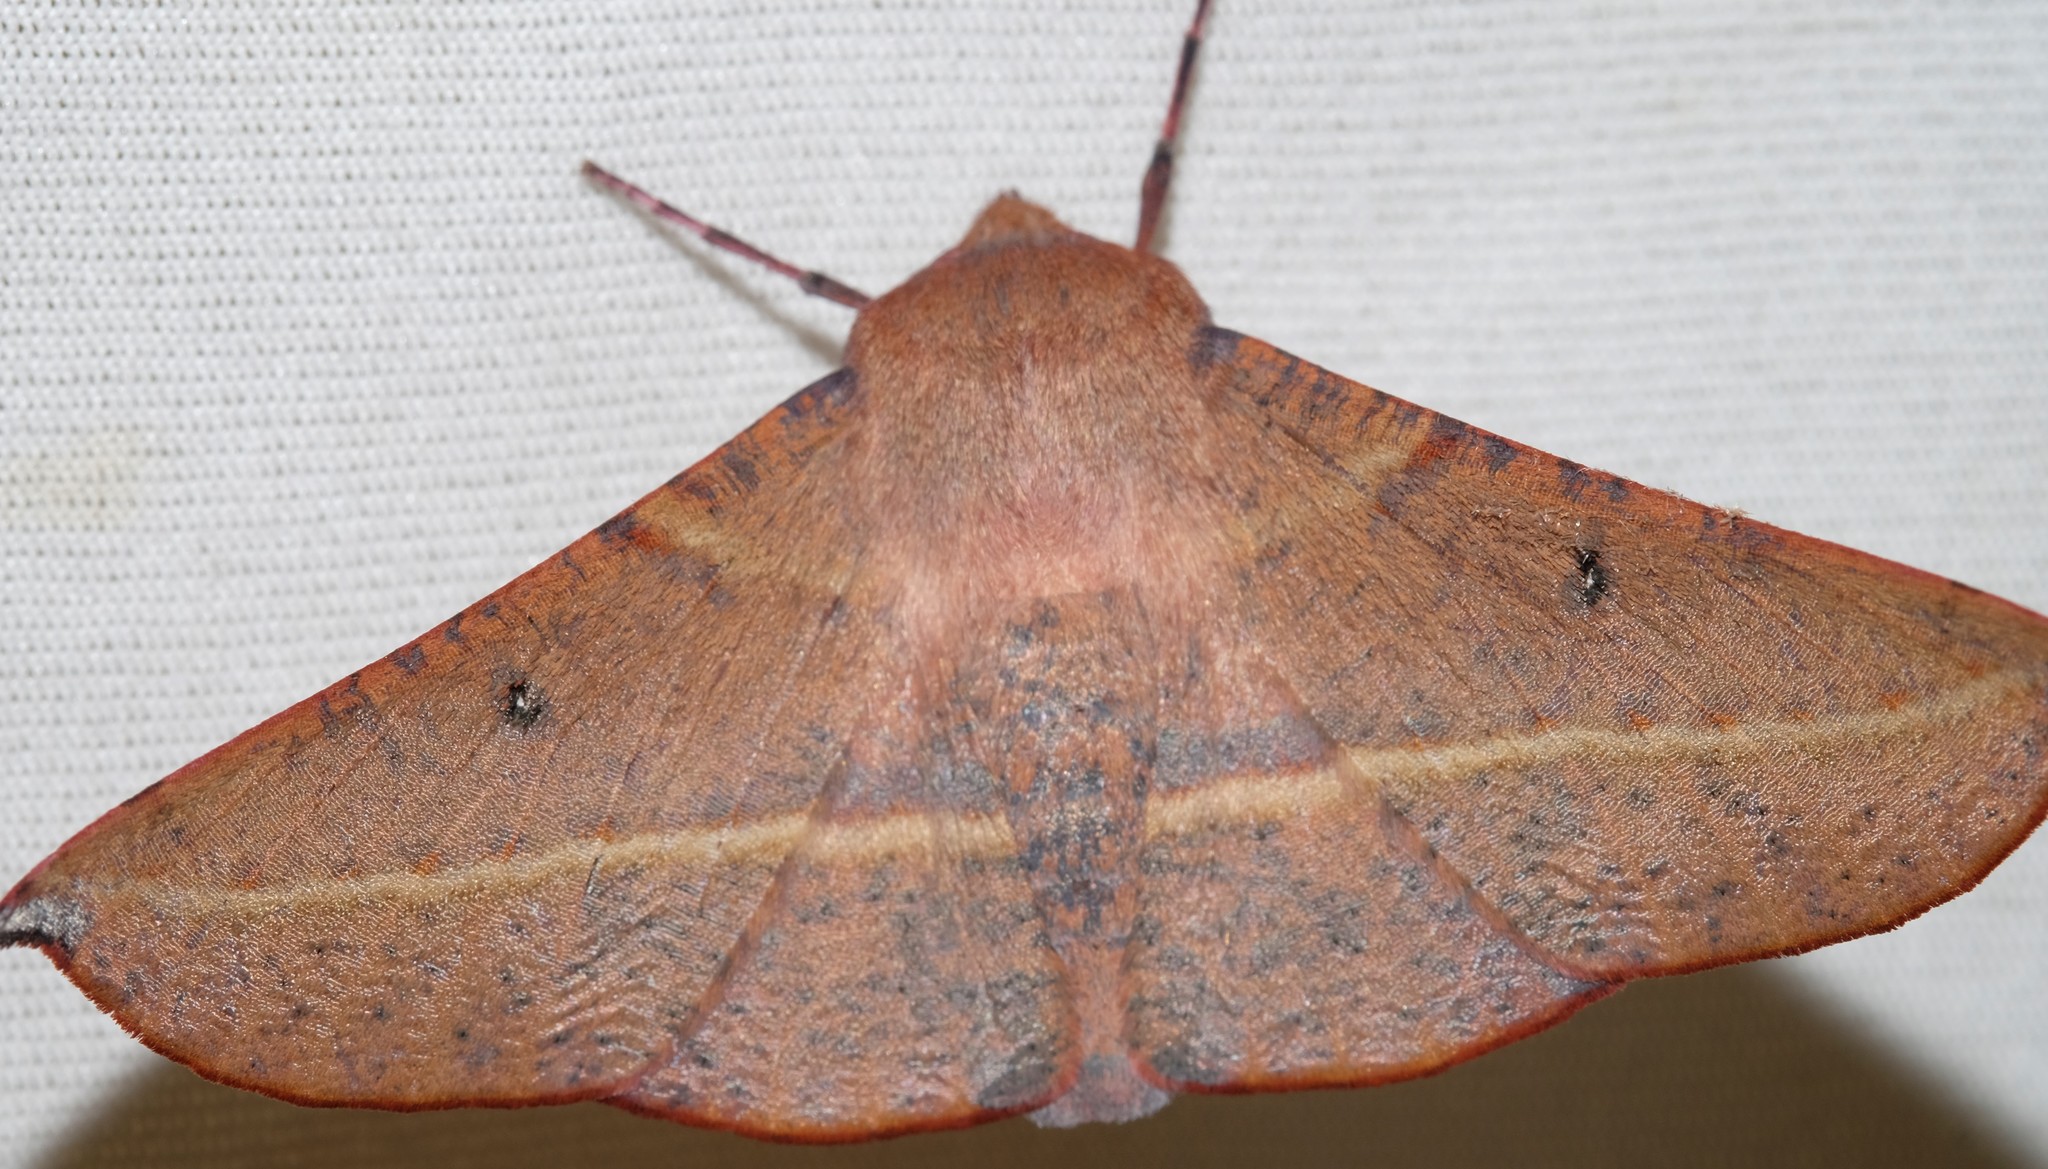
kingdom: Animalia
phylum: Arthropoda
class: Insecta
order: Lepidoptera
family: Geometridae
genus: Oenochroma
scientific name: Oenochroma vinaria
